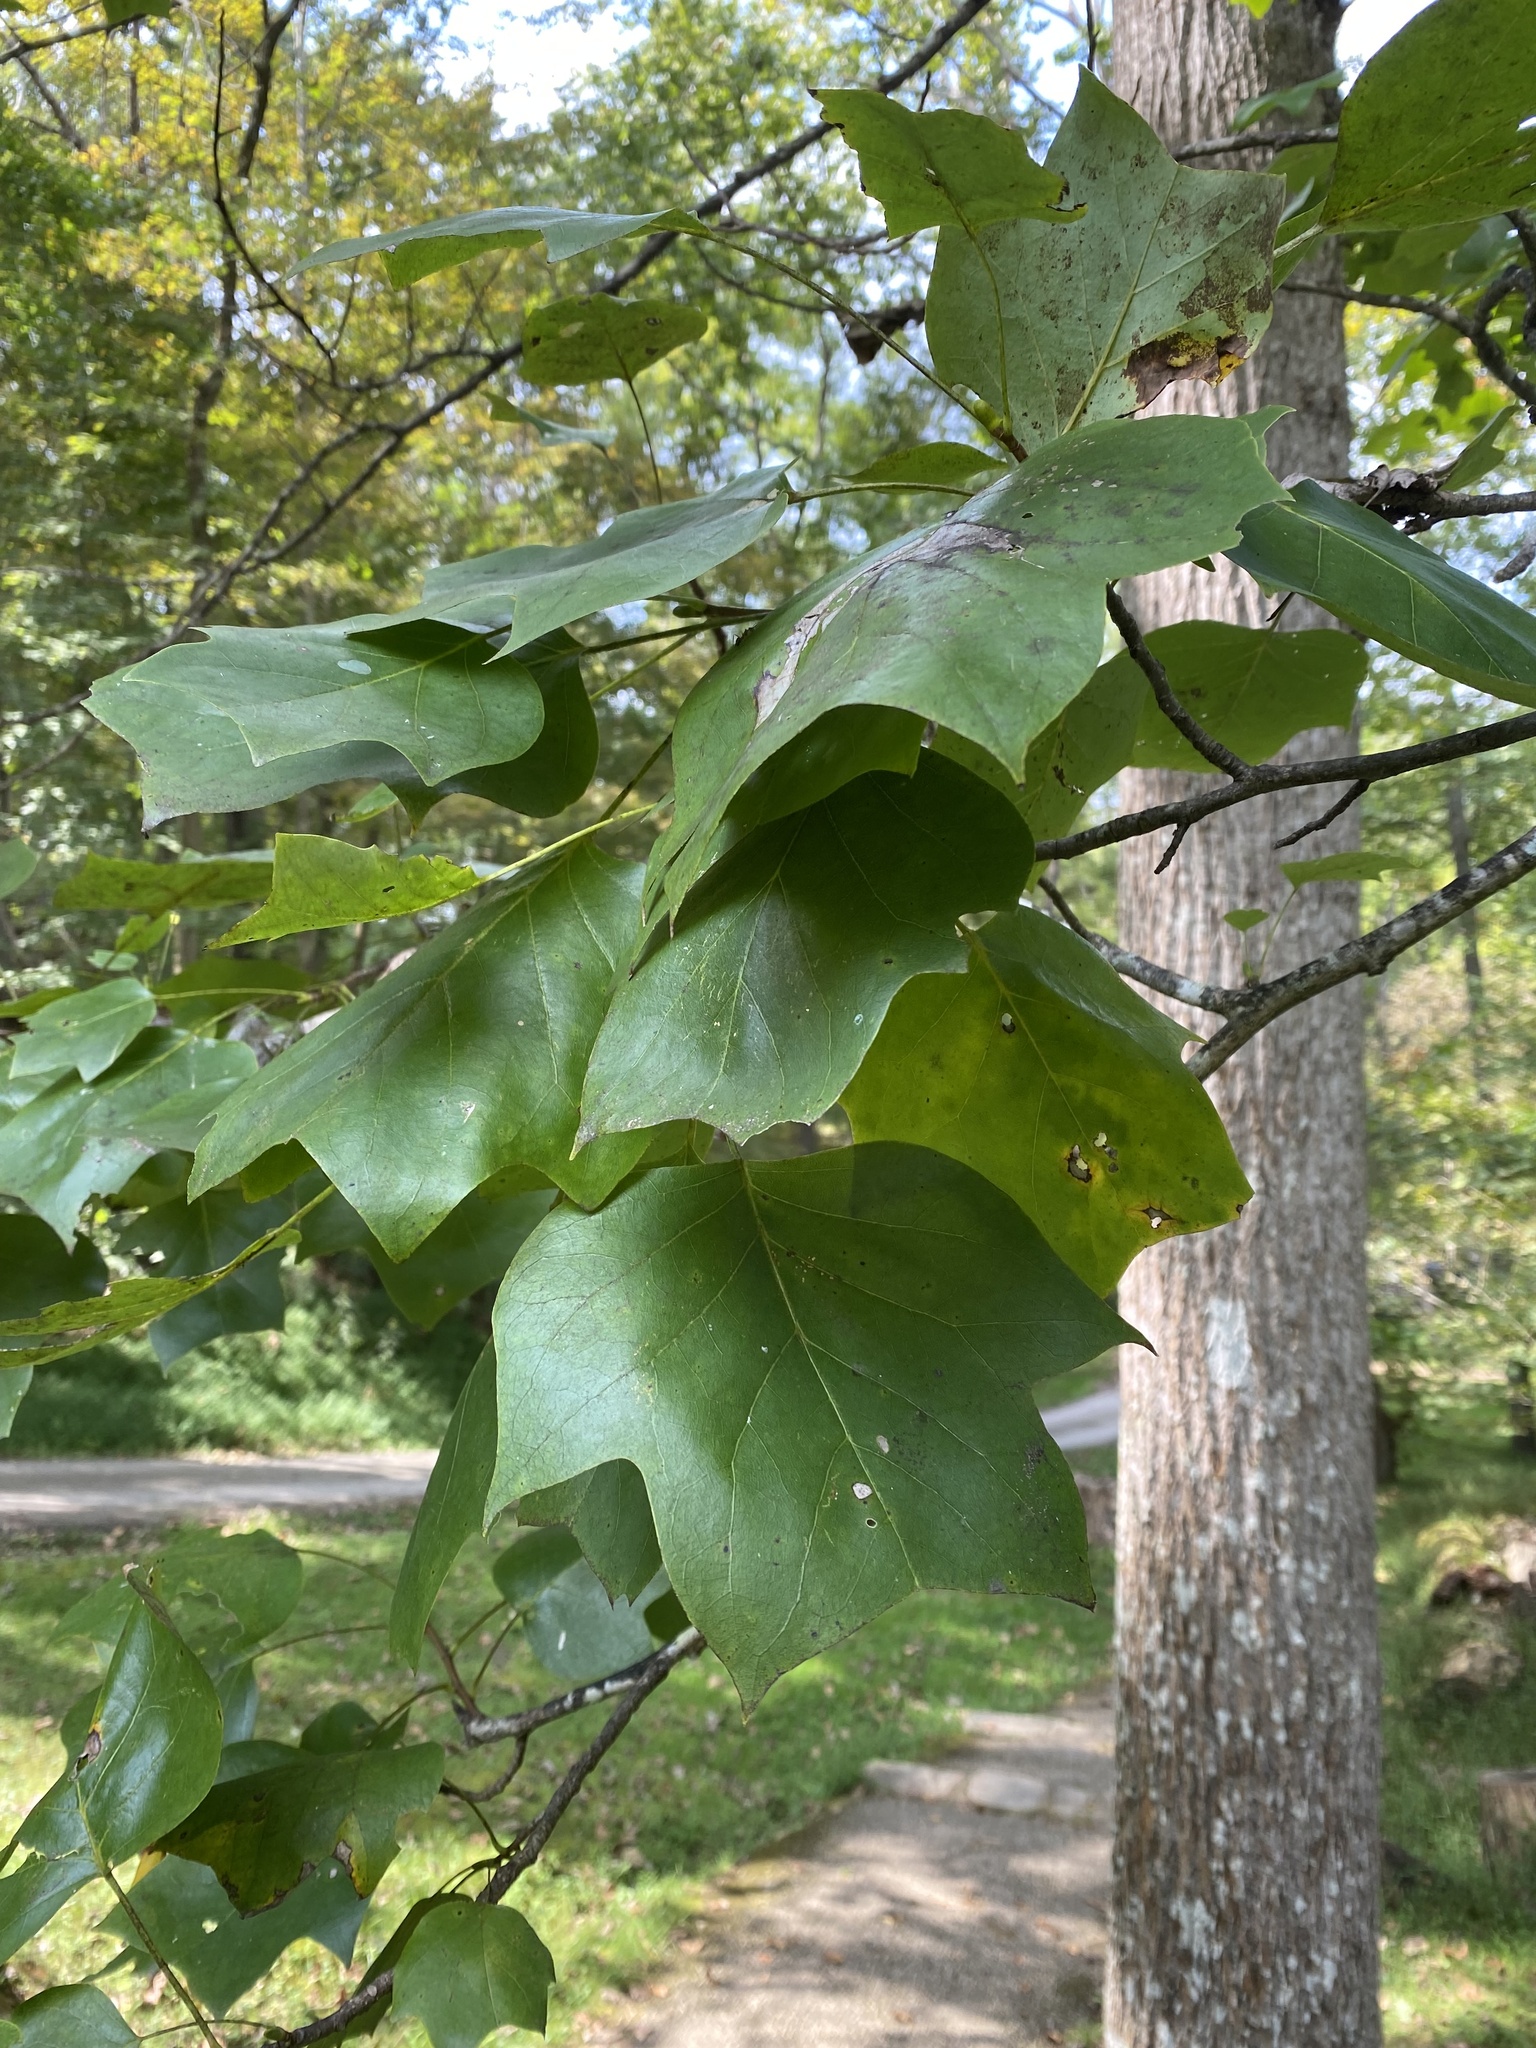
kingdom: Plantae
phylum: Tracheophyta
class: Magnoliopsida
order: Magnoliales
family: Magnoliaceae
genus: Liriodendron
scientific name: Liriodendron tulipifera
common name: Tulip tree
